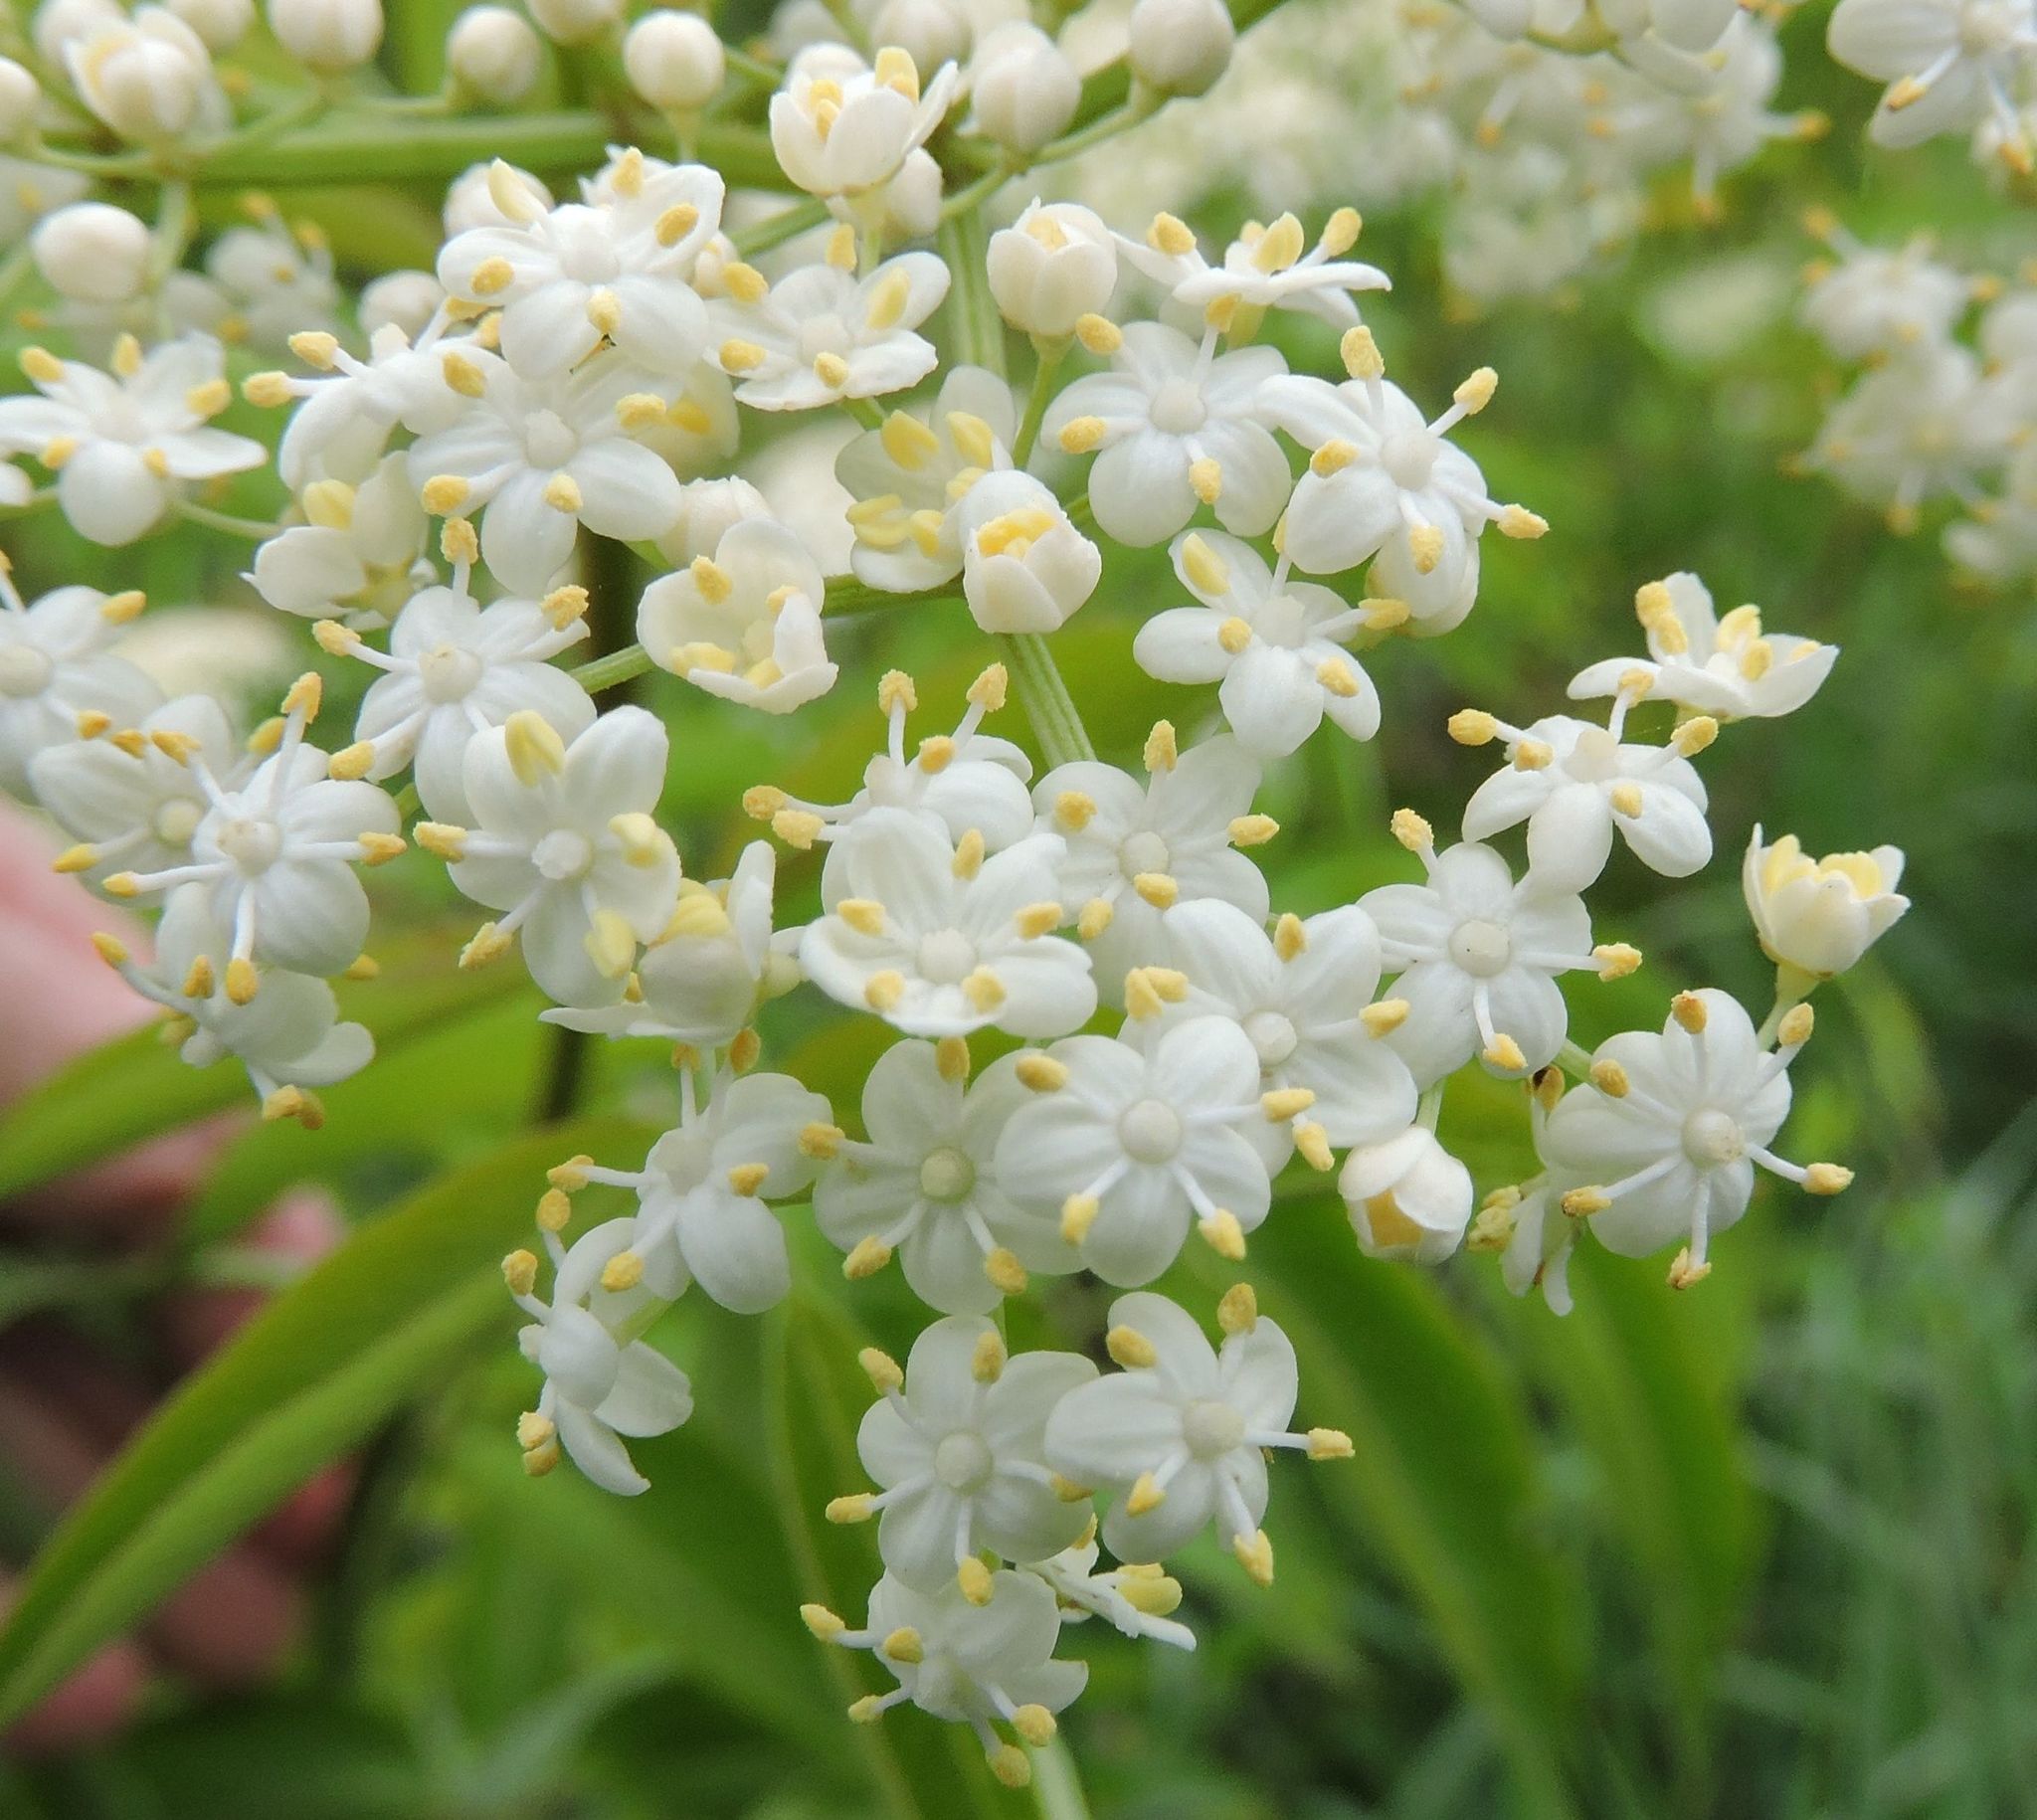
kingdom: Plantae
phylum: Tracheophyta
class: Magnoliopsida
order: Dipsacales
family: Viburnaceae
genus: Sambucus
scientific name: Sambucus canadensis
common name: American elder
